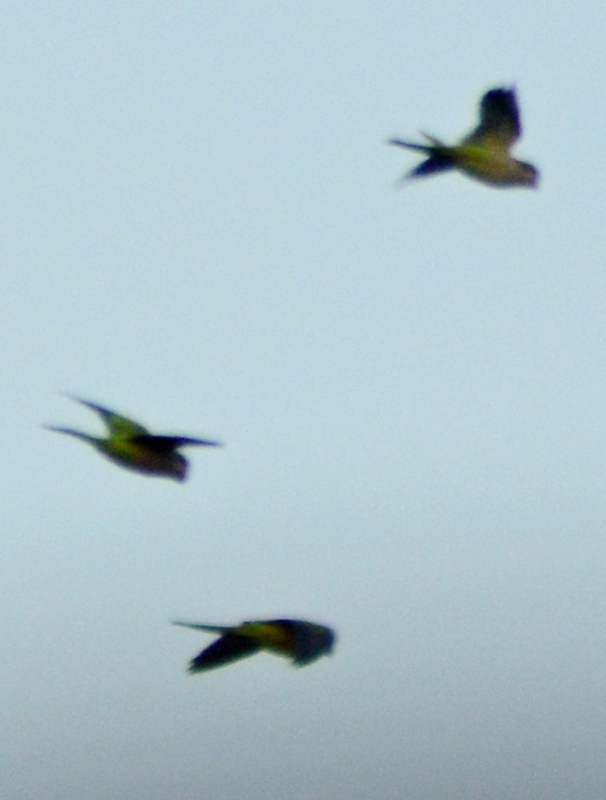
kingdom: Animalia
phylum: Chordata
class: Aves
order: Psittaciformes
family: Psittacidae
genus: Myiopsitta
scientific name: Myiopsitta monachus
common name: Monk parakeet
